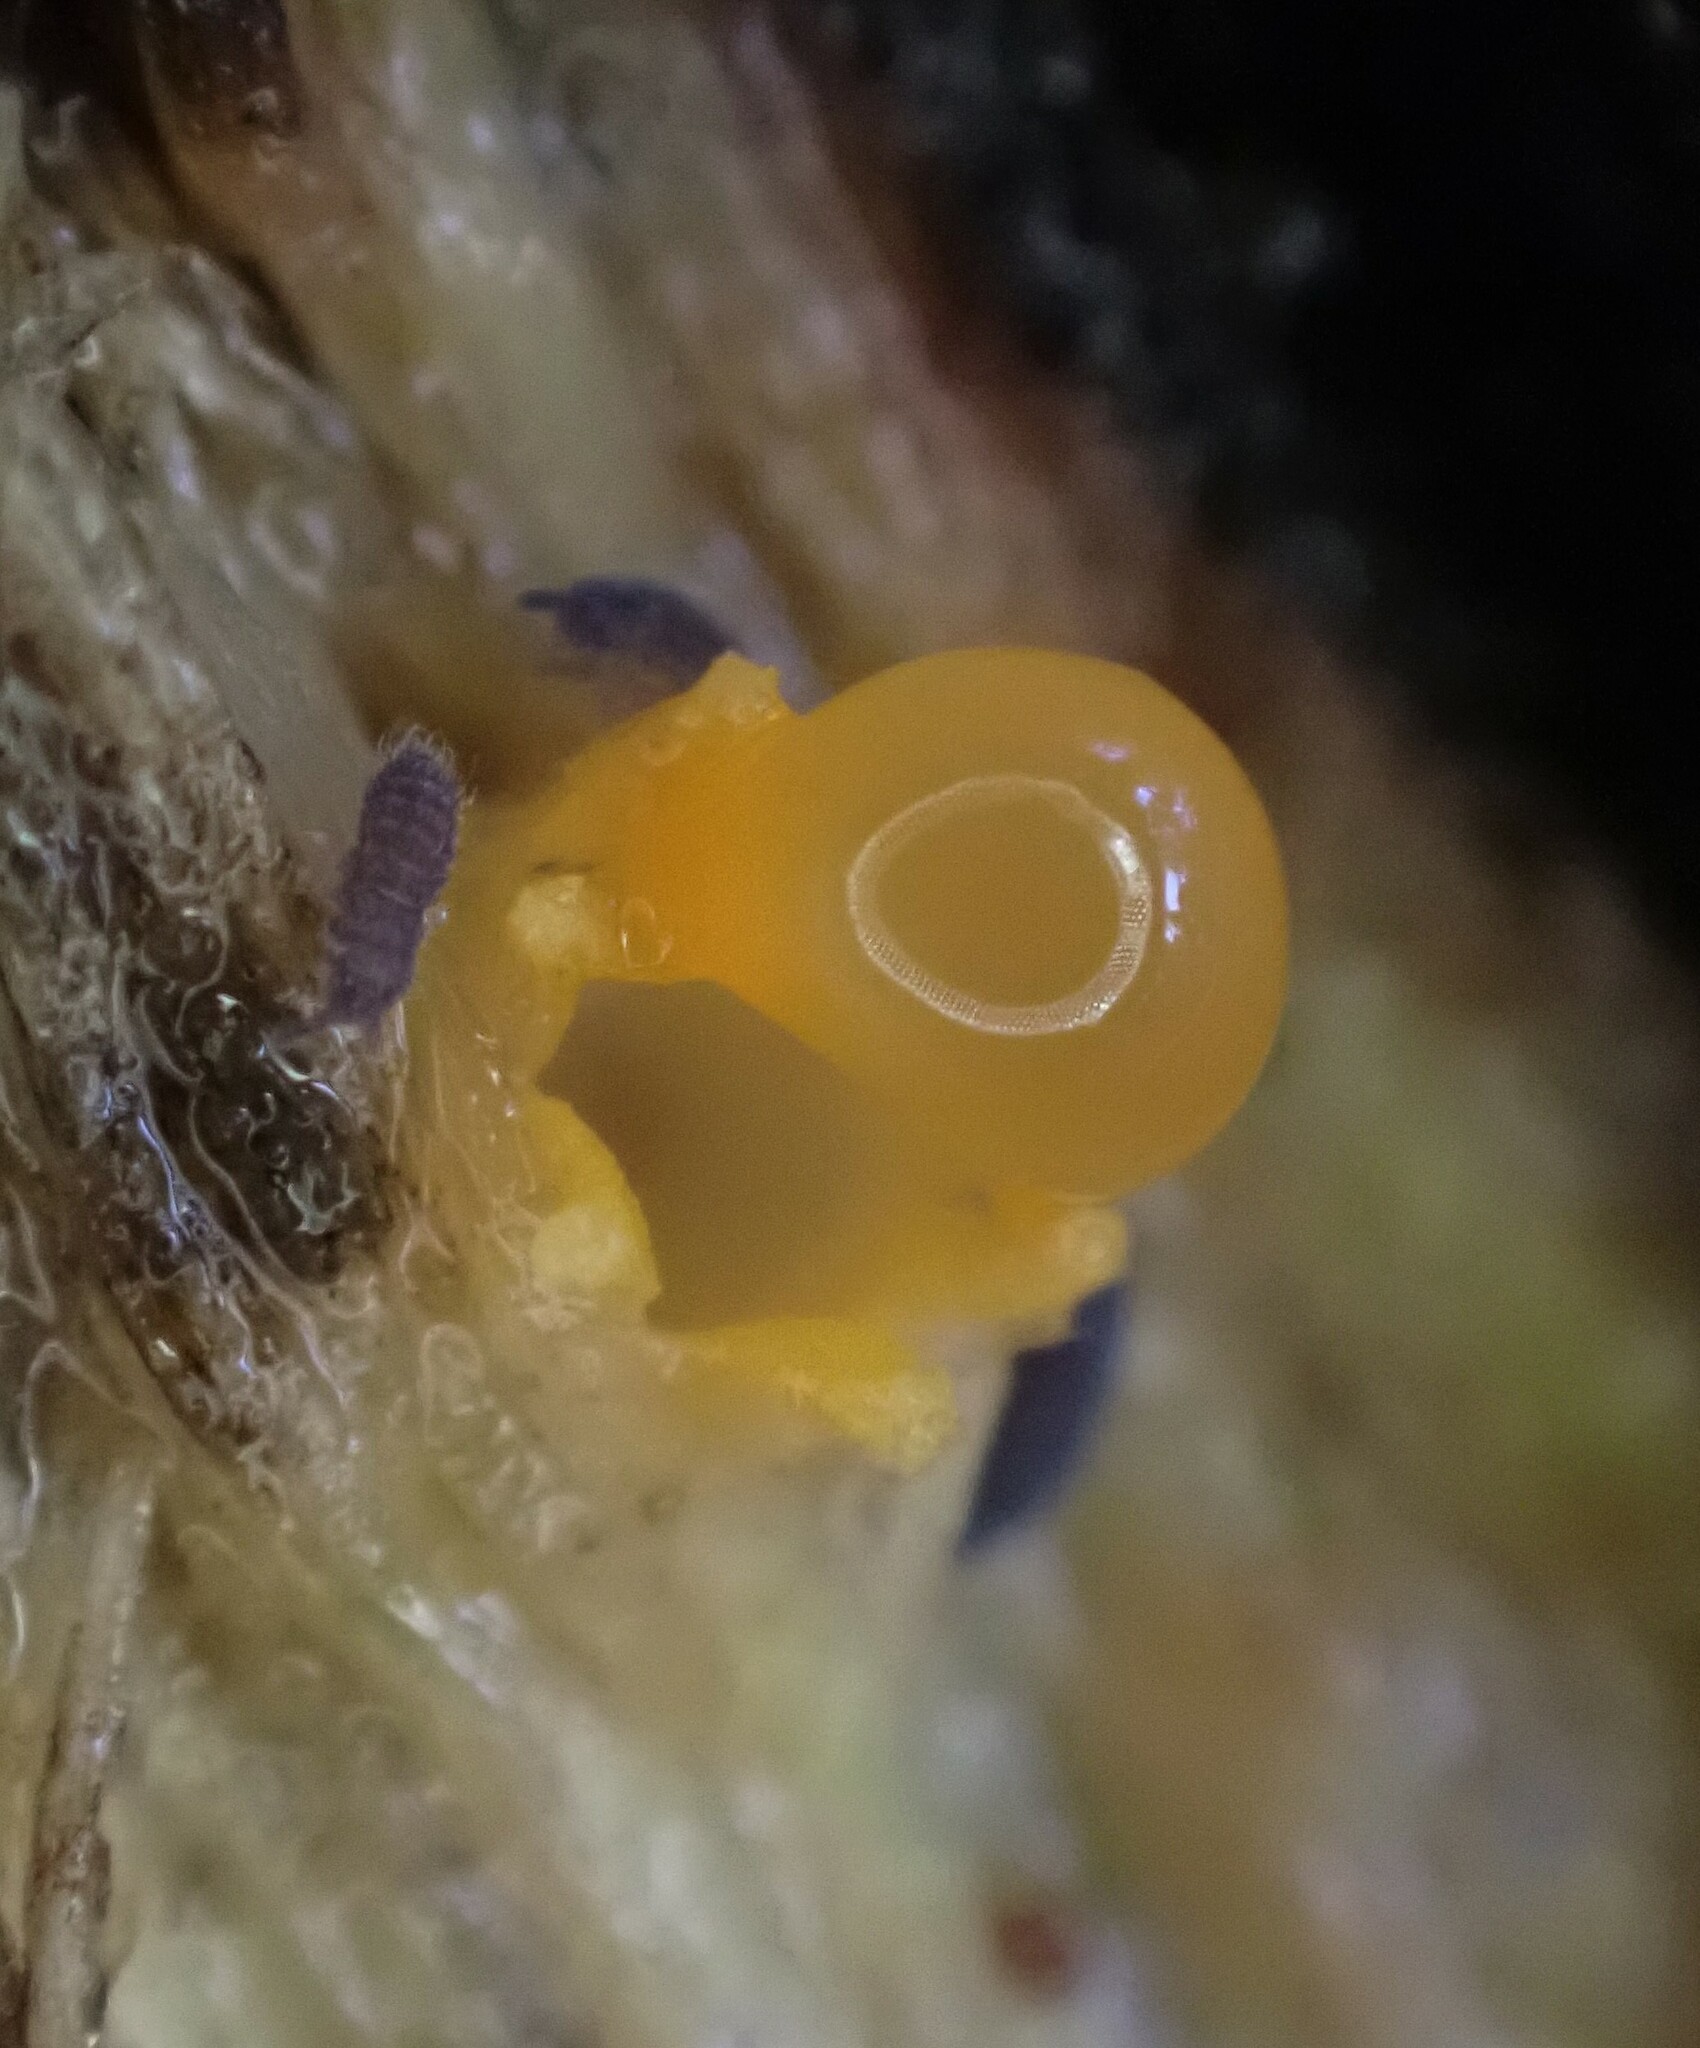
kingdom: Fungi
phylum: Basidiomycota
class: Agaricomycetes
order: Geastrales
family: Geastraceae
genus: Sphaerobolus
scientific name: Sphaerobolus stellatus
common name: Cannon fungus
